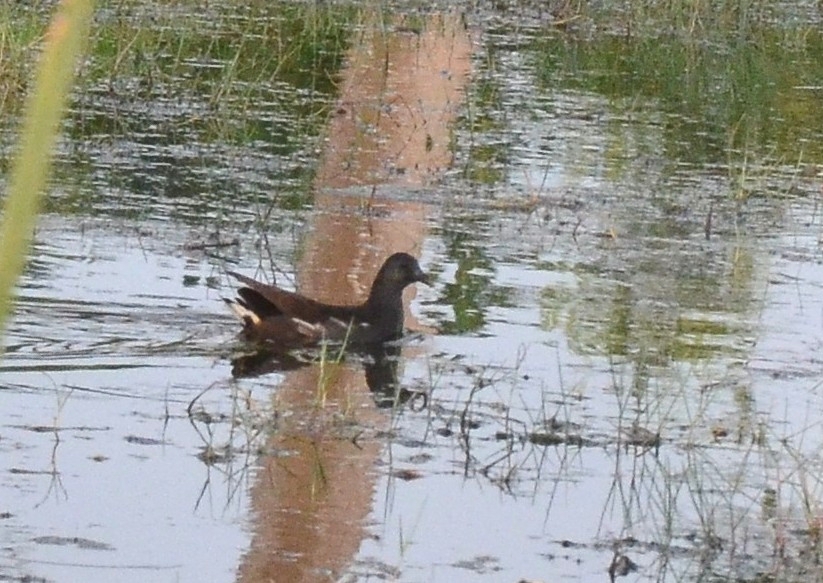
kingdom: Animalia
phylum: Chordata
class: Aves
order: Gruiformes
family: Rallidae
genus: Gallinula
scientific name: Gallinula chloropus
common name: Common moorhen
